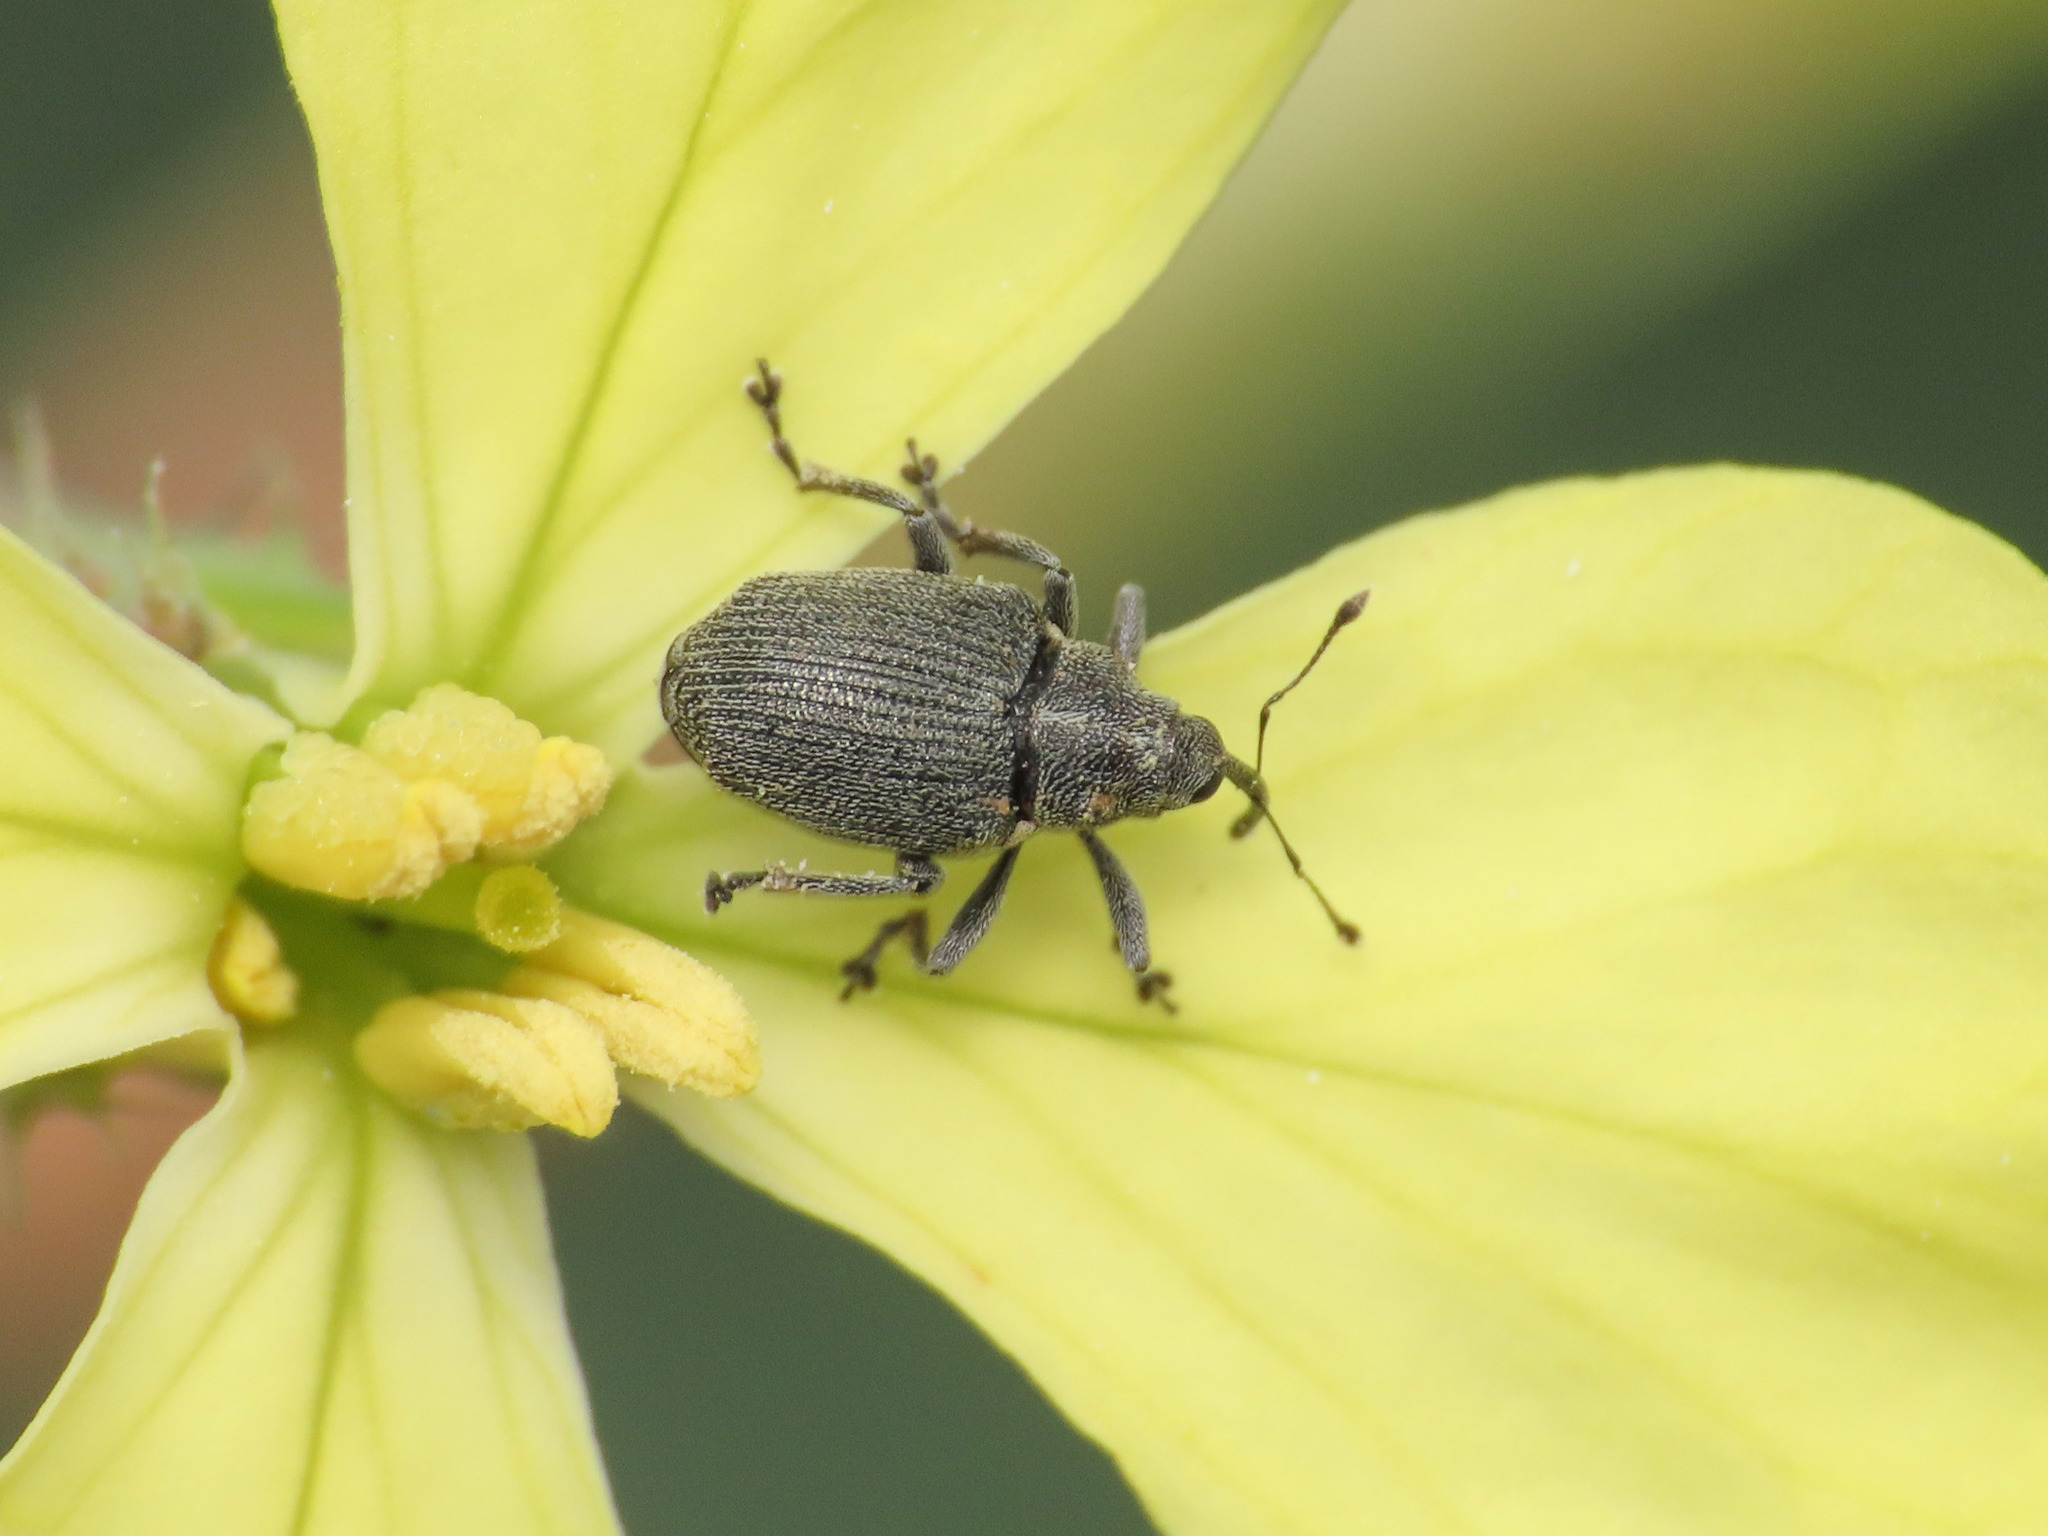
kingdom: Animalia
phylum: Arthropoda
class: Insecta
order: Coleoptera
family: Curculionidae
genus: Ceutorhynchus
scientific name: Ceutorhynchus obstrictus
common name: Cabbage seed weevil
